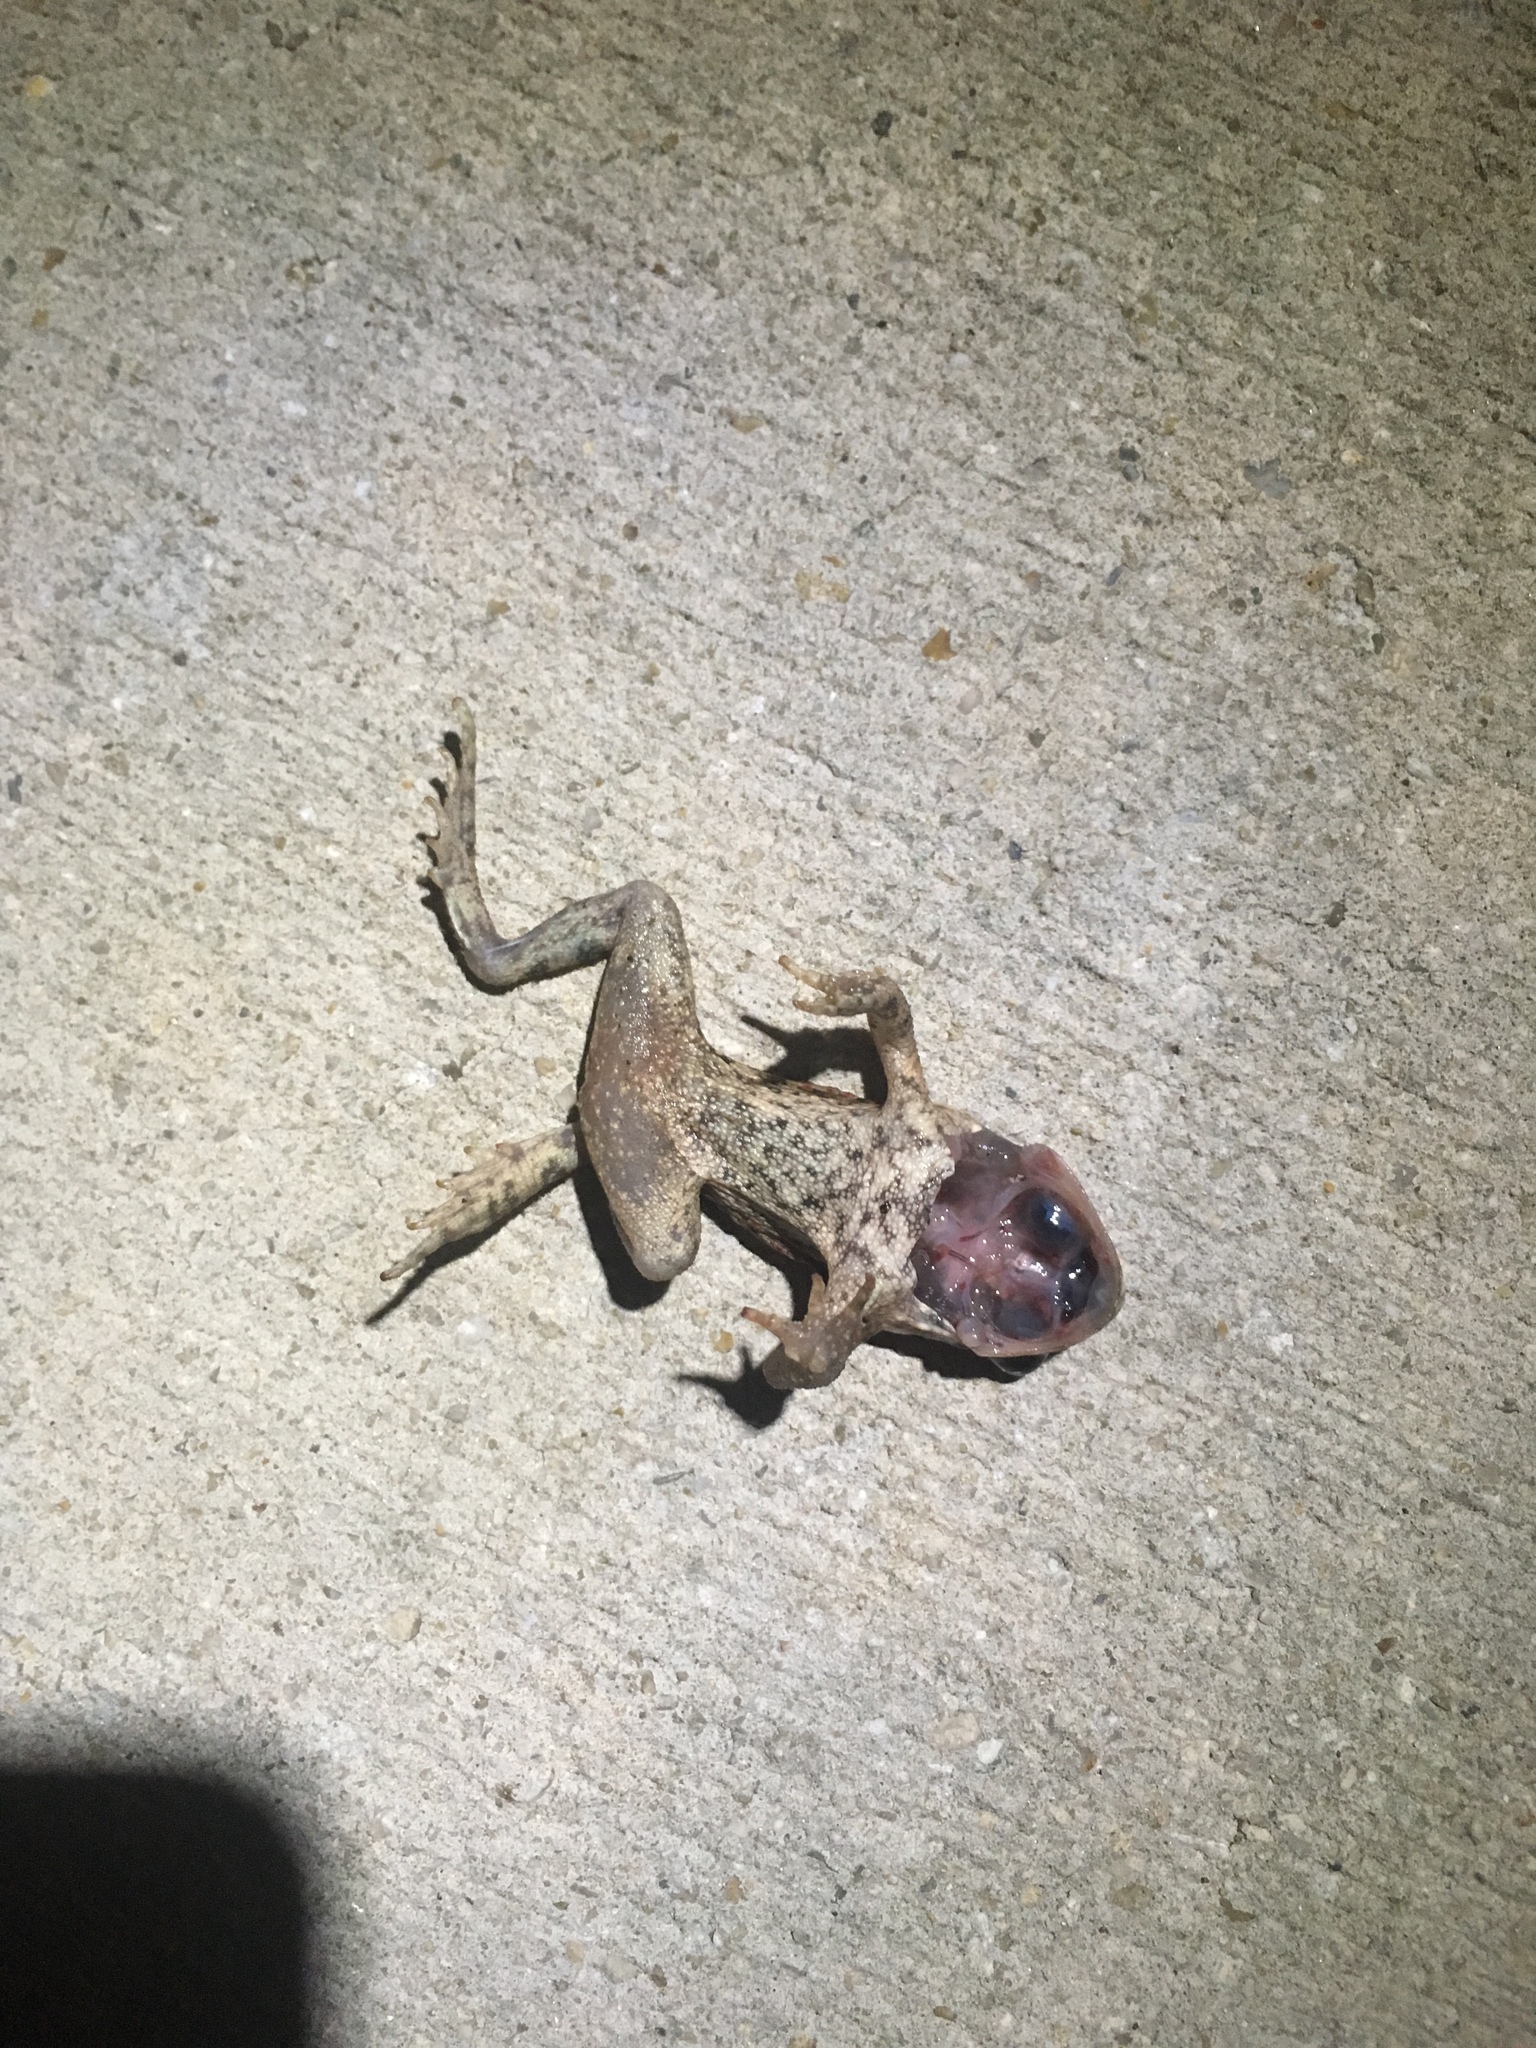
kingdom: Animalia
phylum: Chordata
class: Amphibia
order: Anura
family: Bufonidae
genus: Rhinella
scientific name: Rhinella marina
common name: Cane toad
